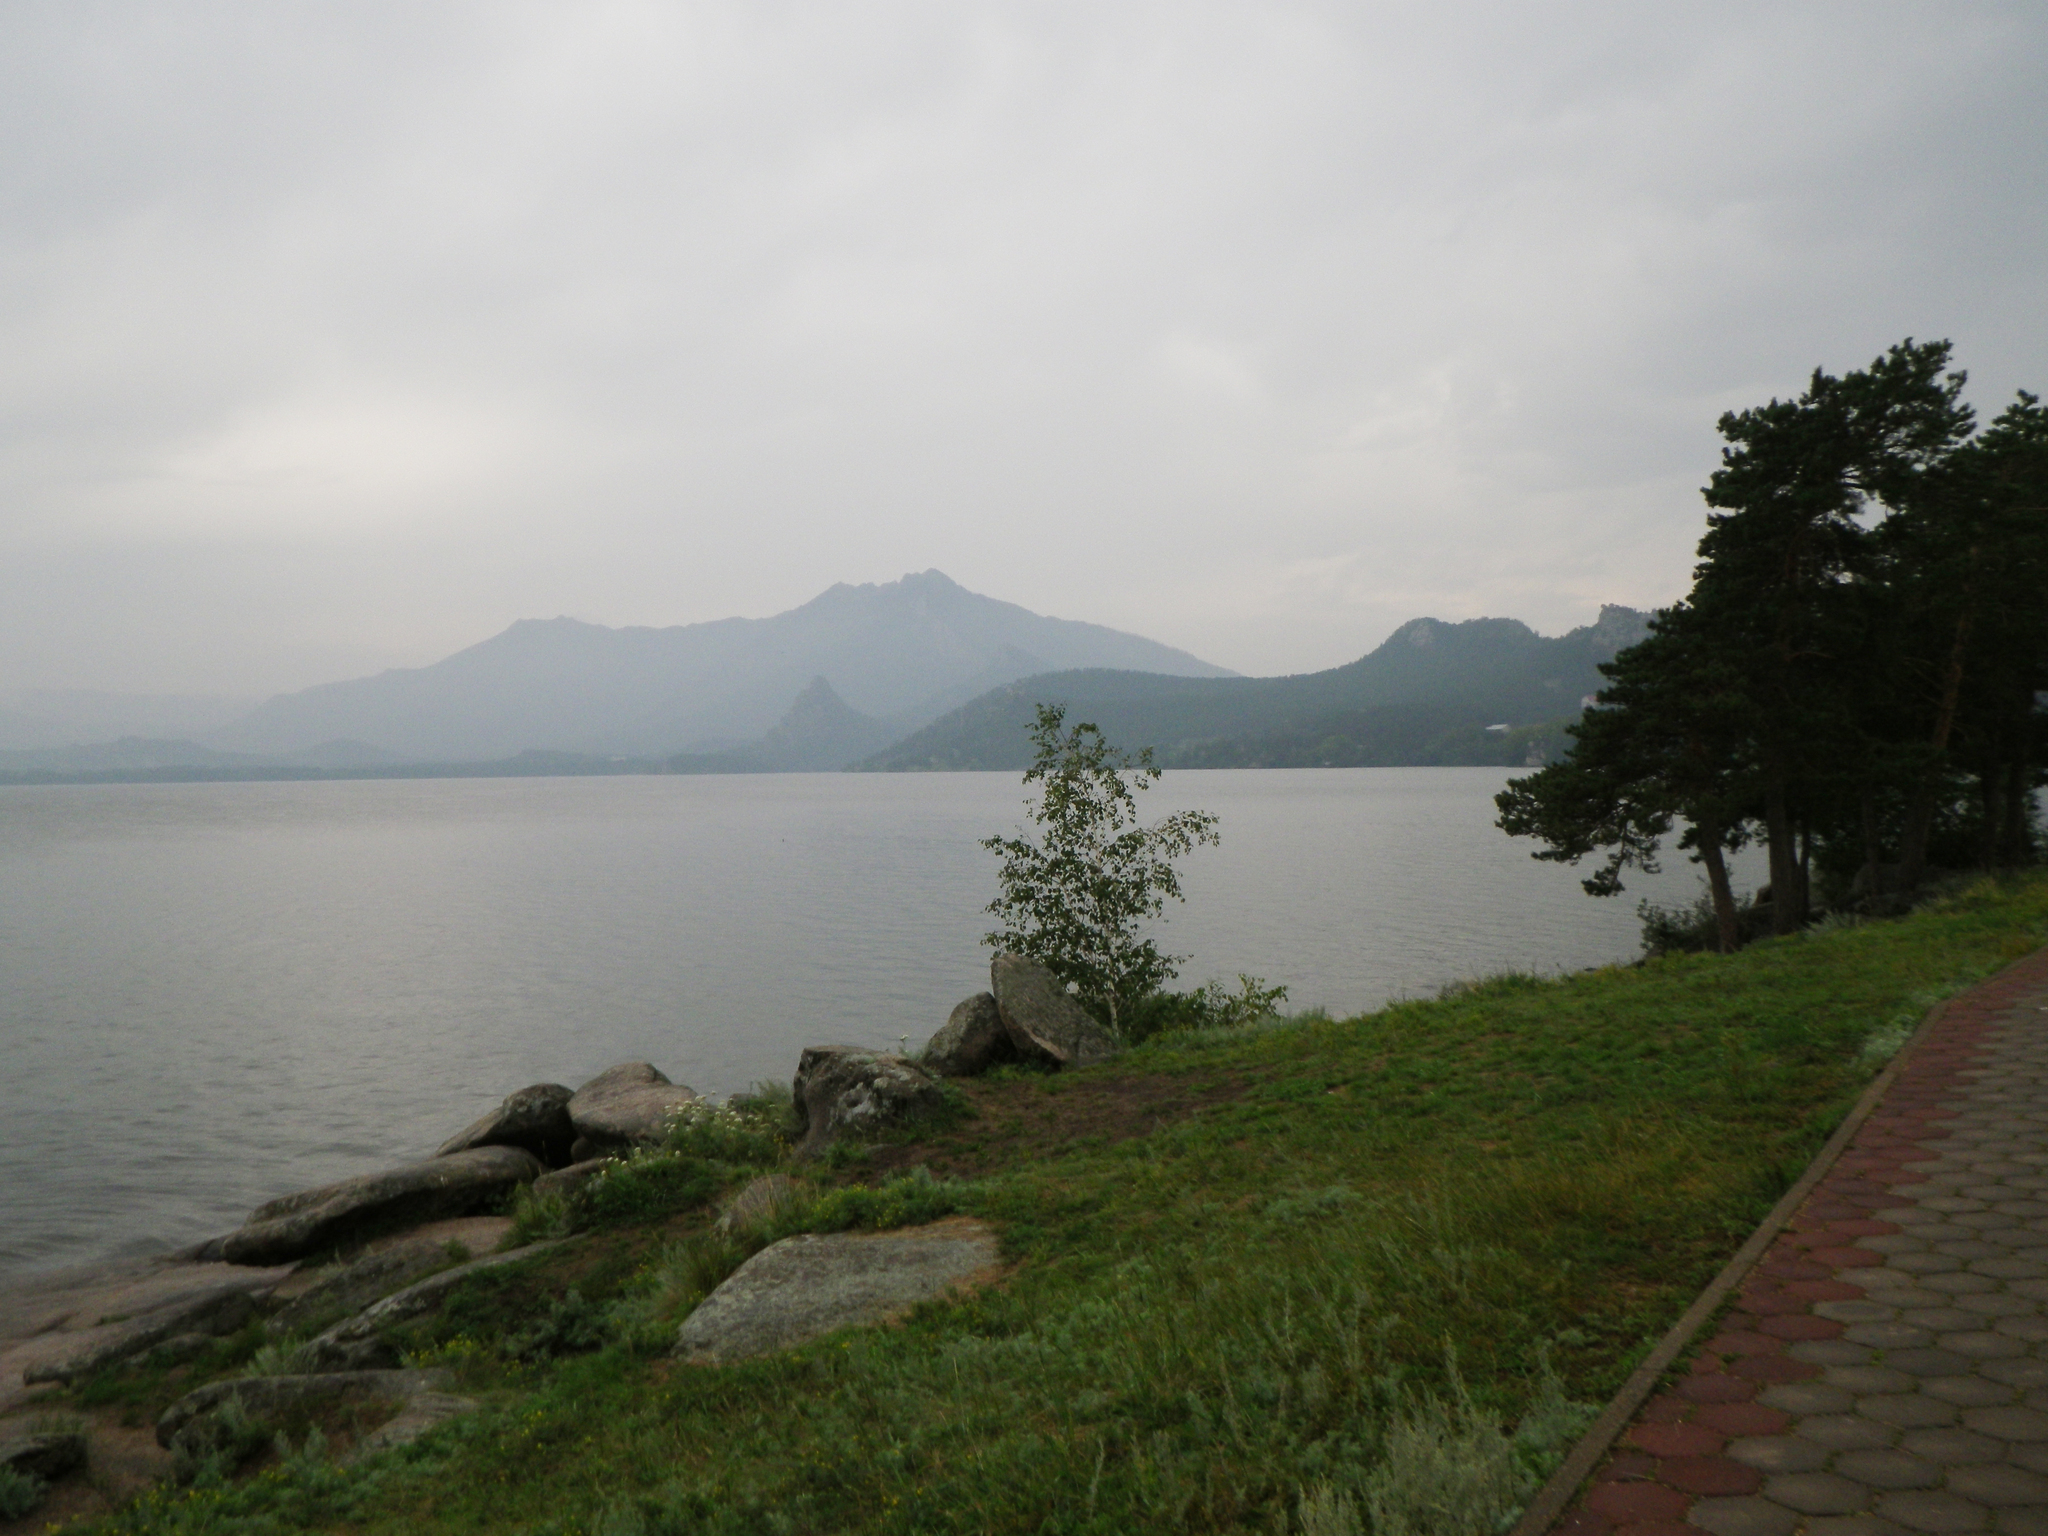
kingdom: Plantae
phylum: Tracheophyta
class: Pinopsida
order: Pinales
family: Pinaceae
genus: Pinus
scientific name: Pinus sylvestris
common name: Scots pine
